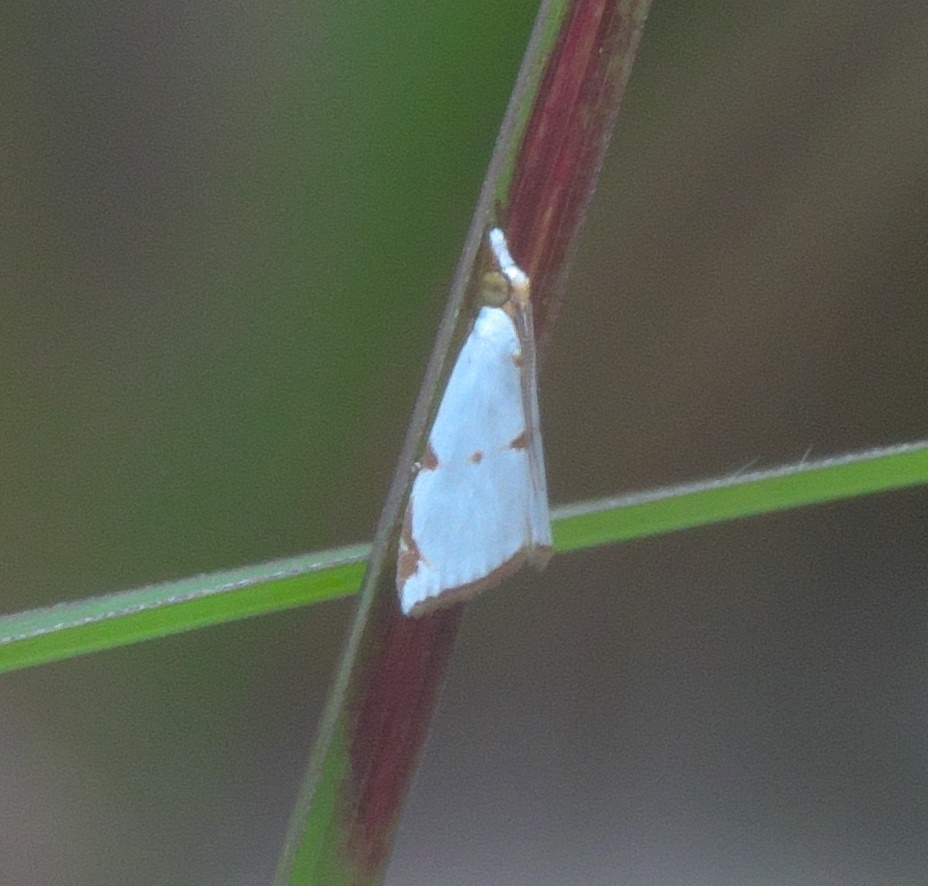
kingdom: Animalia
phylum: Arthropoda
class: Insecta
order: Lepidoptera
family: Crambidae
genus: Argyria
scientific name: Argyria lacteella
